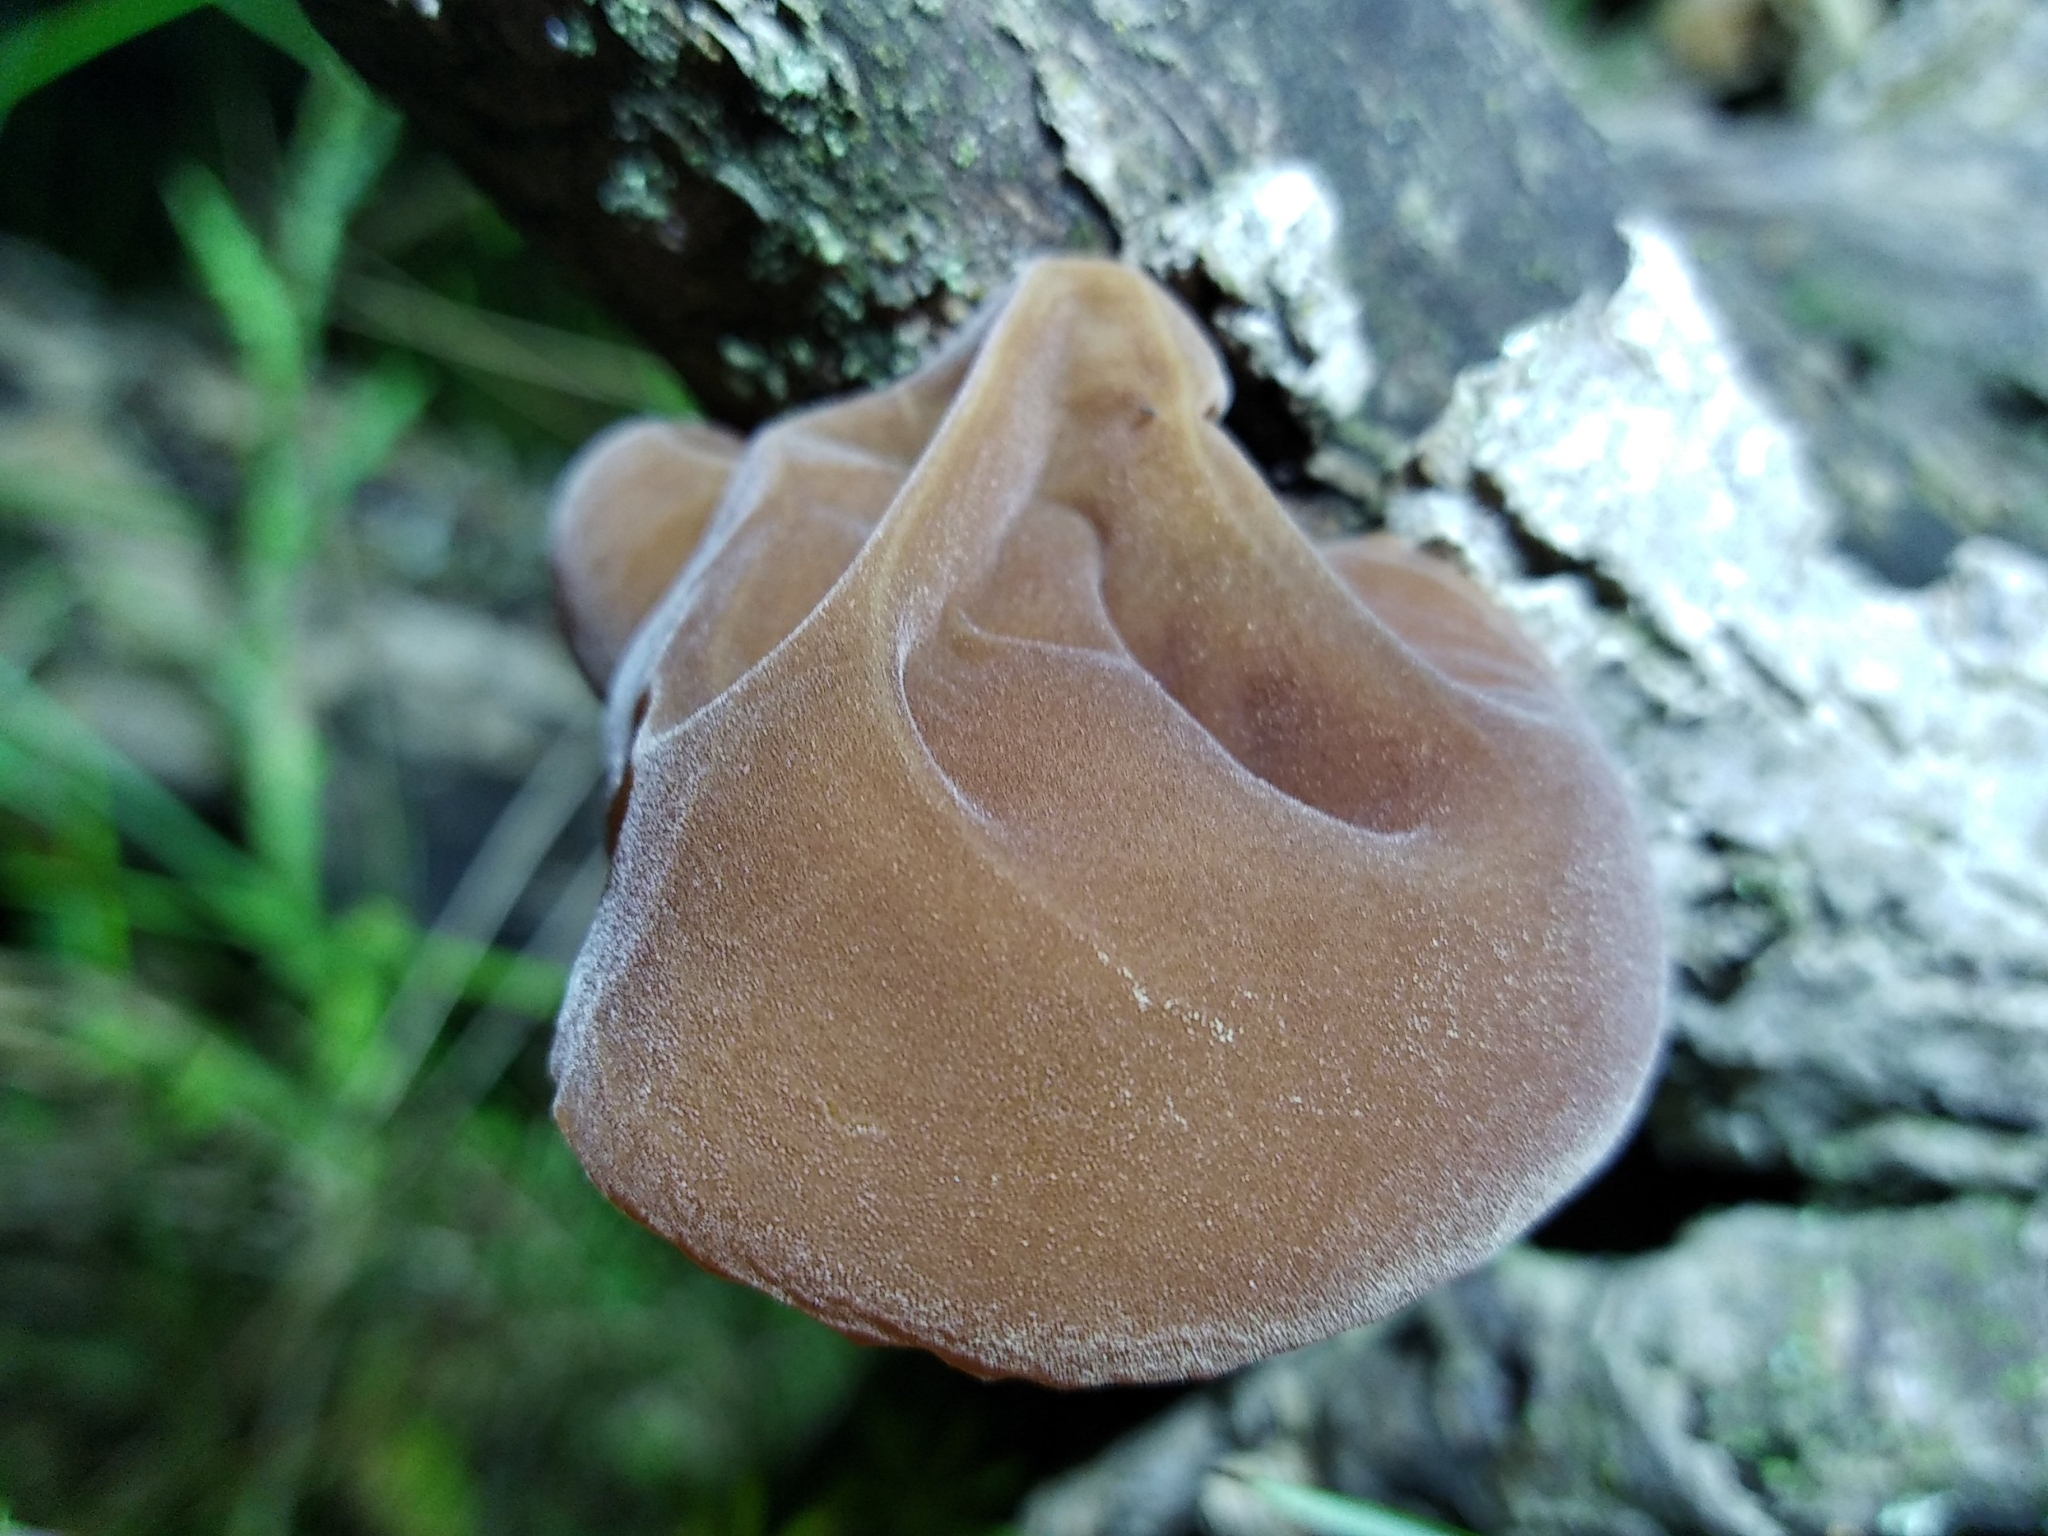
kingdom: Fungi
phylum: Basidiomycota
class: Agaricomycetes
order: Auriculariales
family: Auriculariaceae
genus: Auricularia
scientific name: Auricularia auricula-judae
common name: Jelly ear
